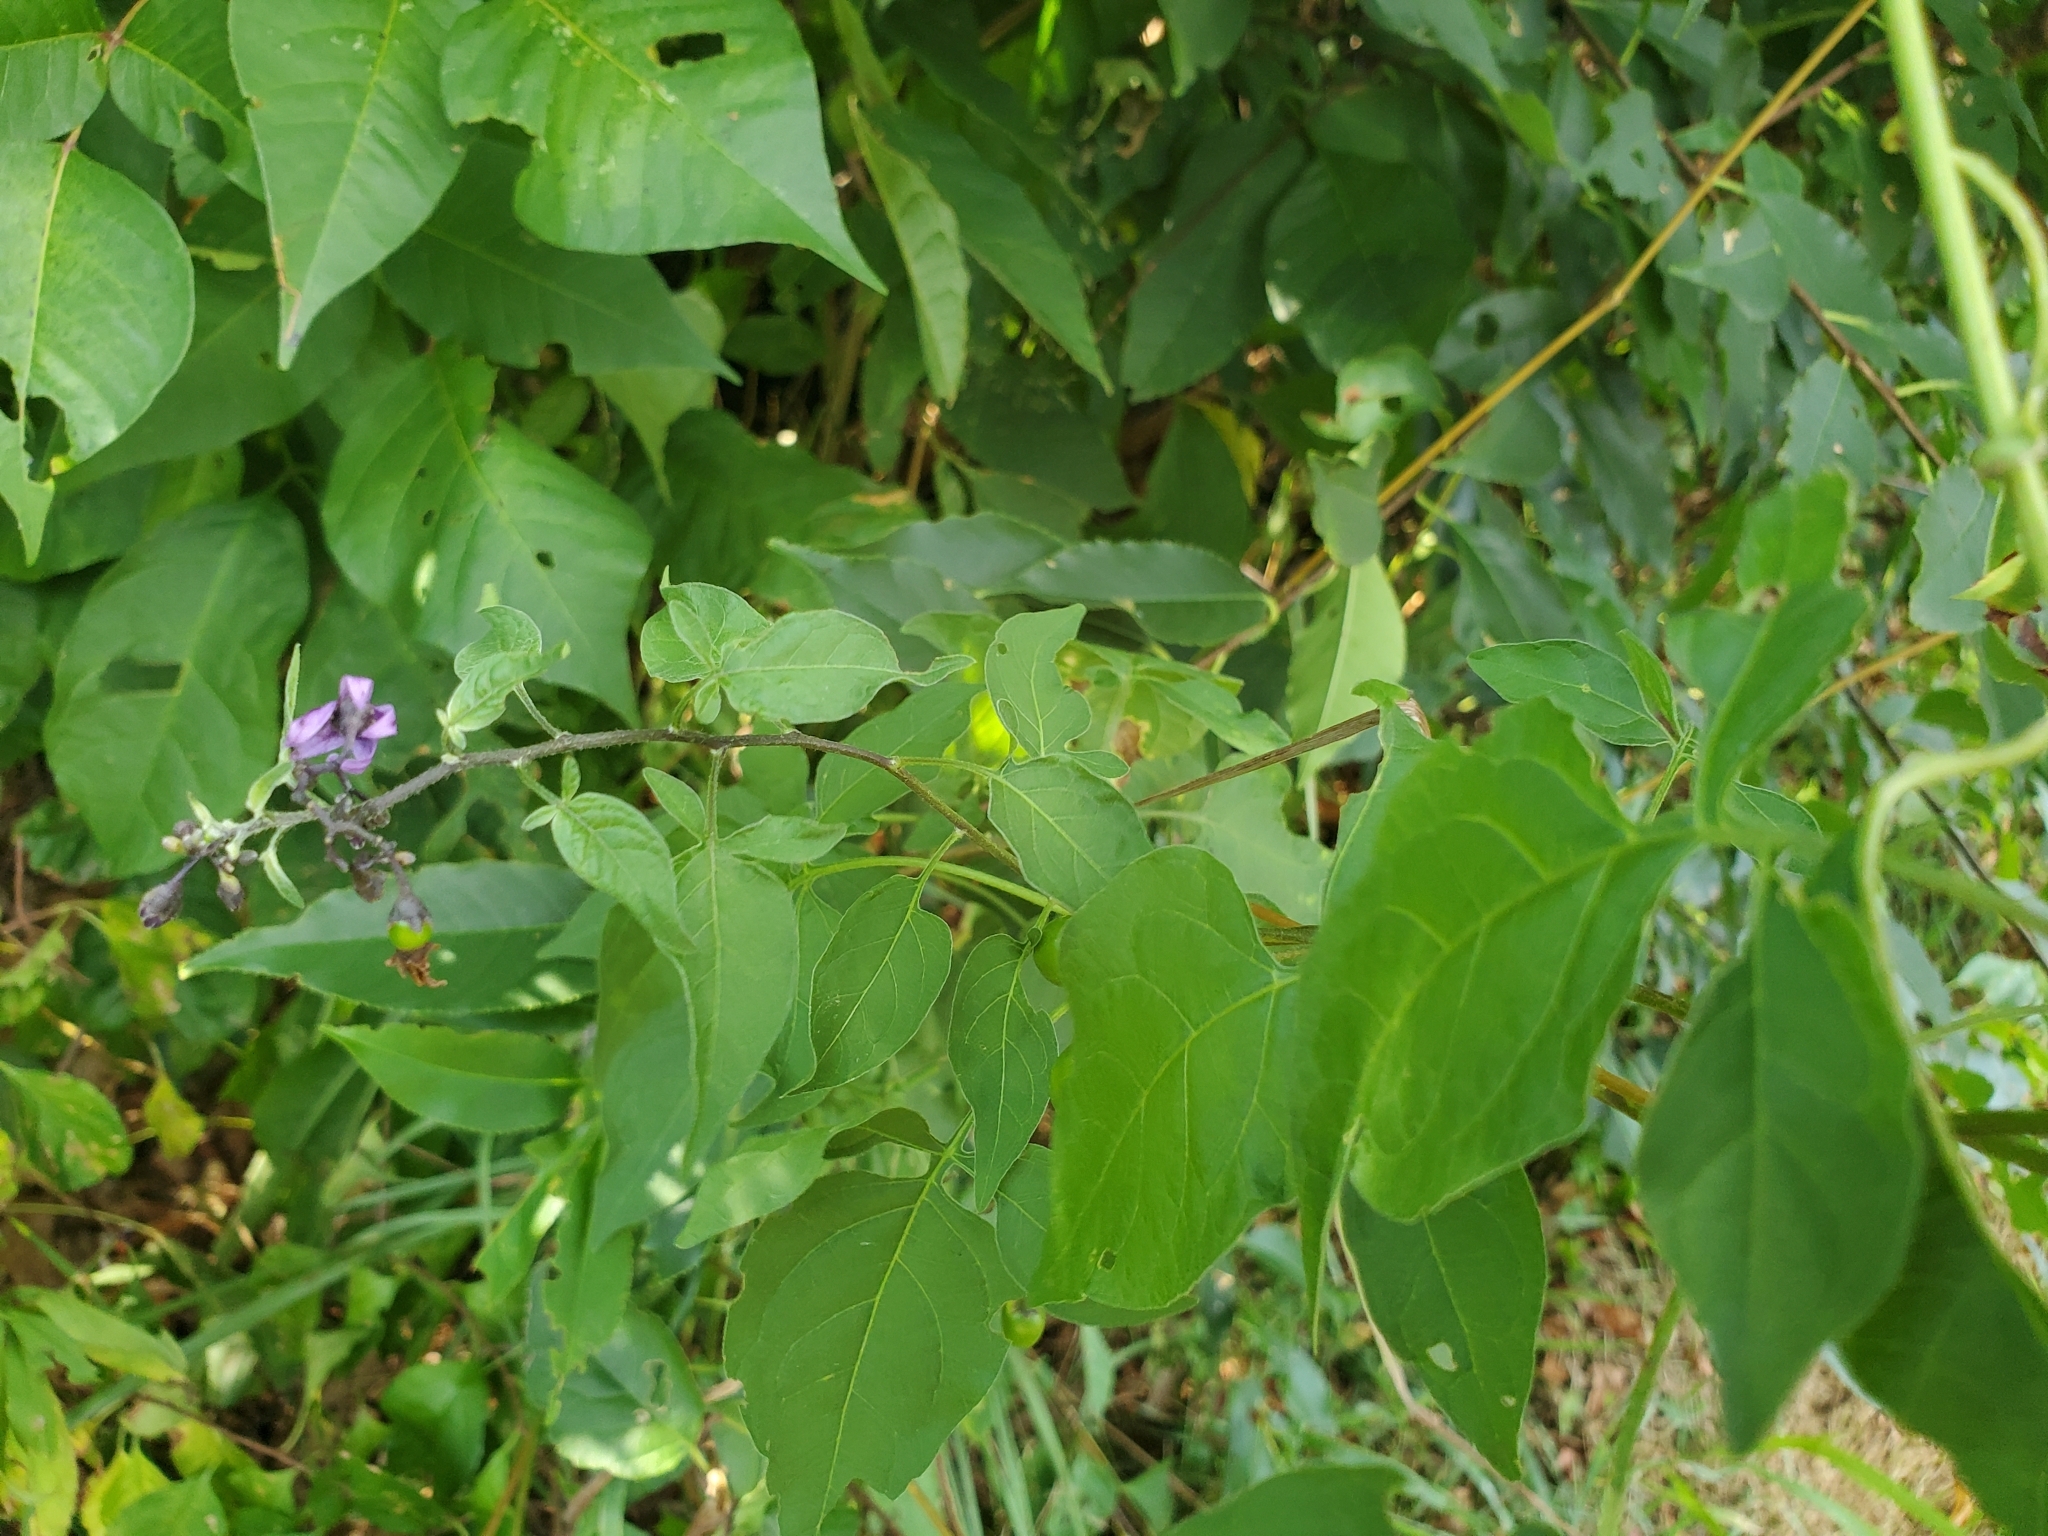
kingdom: Plantae
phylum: Tracheophyta
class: Magnoliopsida
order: Solanales
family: Solanaceae
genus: Solanum
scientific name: Solanum dulcamara
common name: Climbing nightshade
